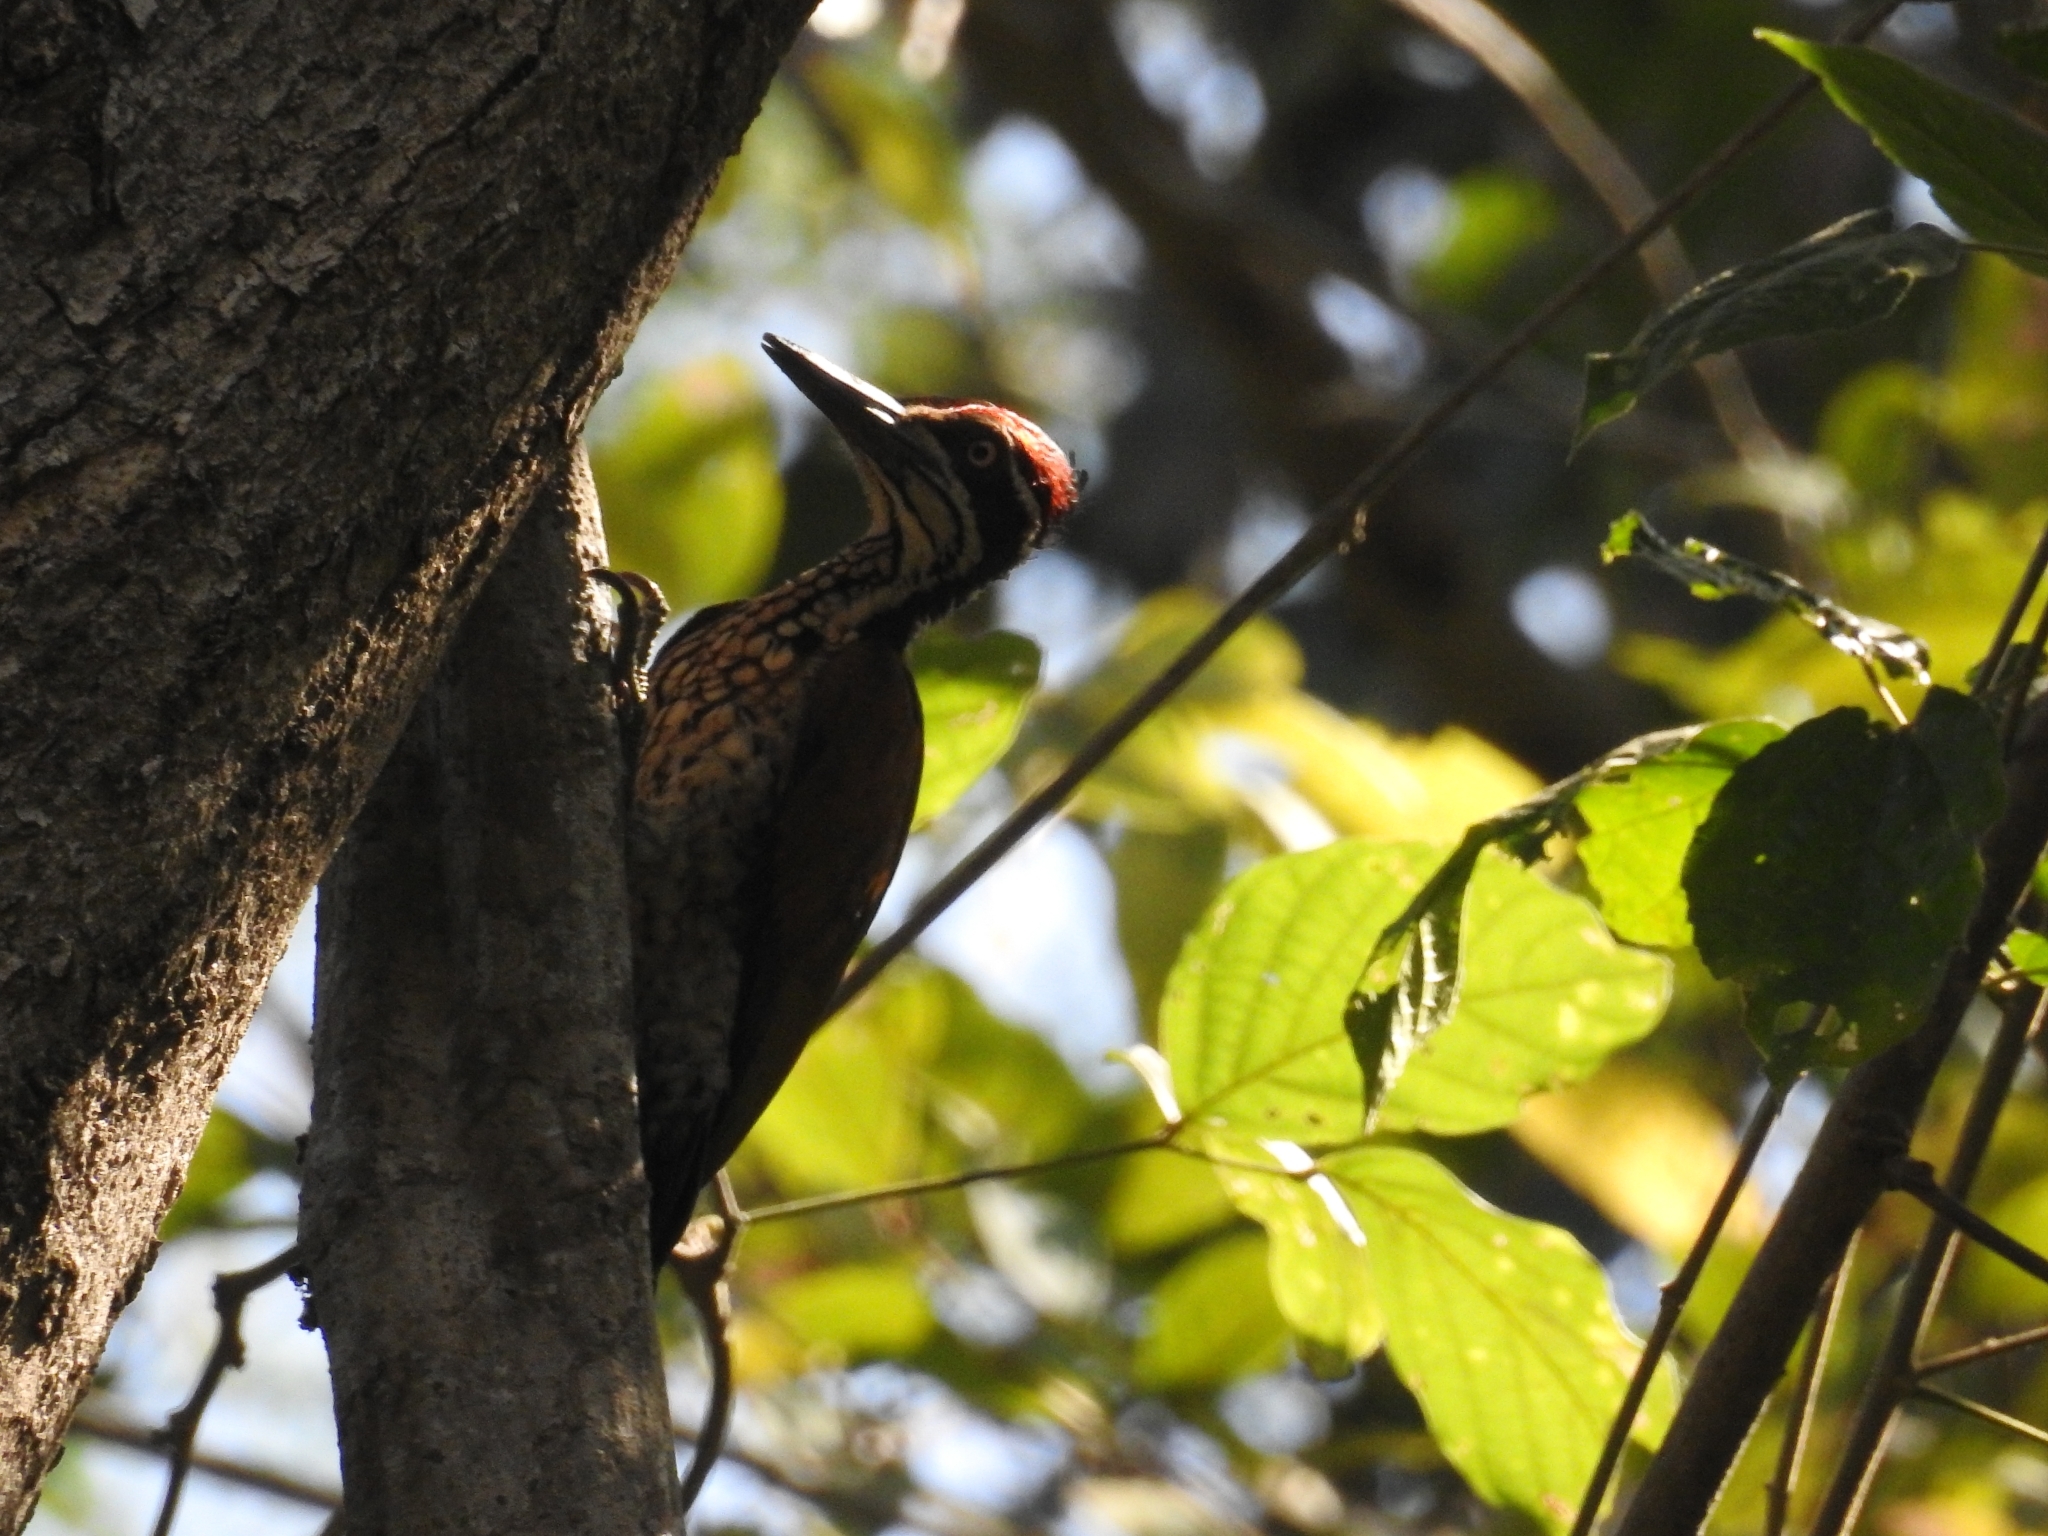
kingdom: Animalia
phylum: Chordata
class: Aves
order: Piciformes
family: Picidae
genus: Chrysocolaptes
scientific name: Chrysocolaptes socialis
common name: Malabar flameback
